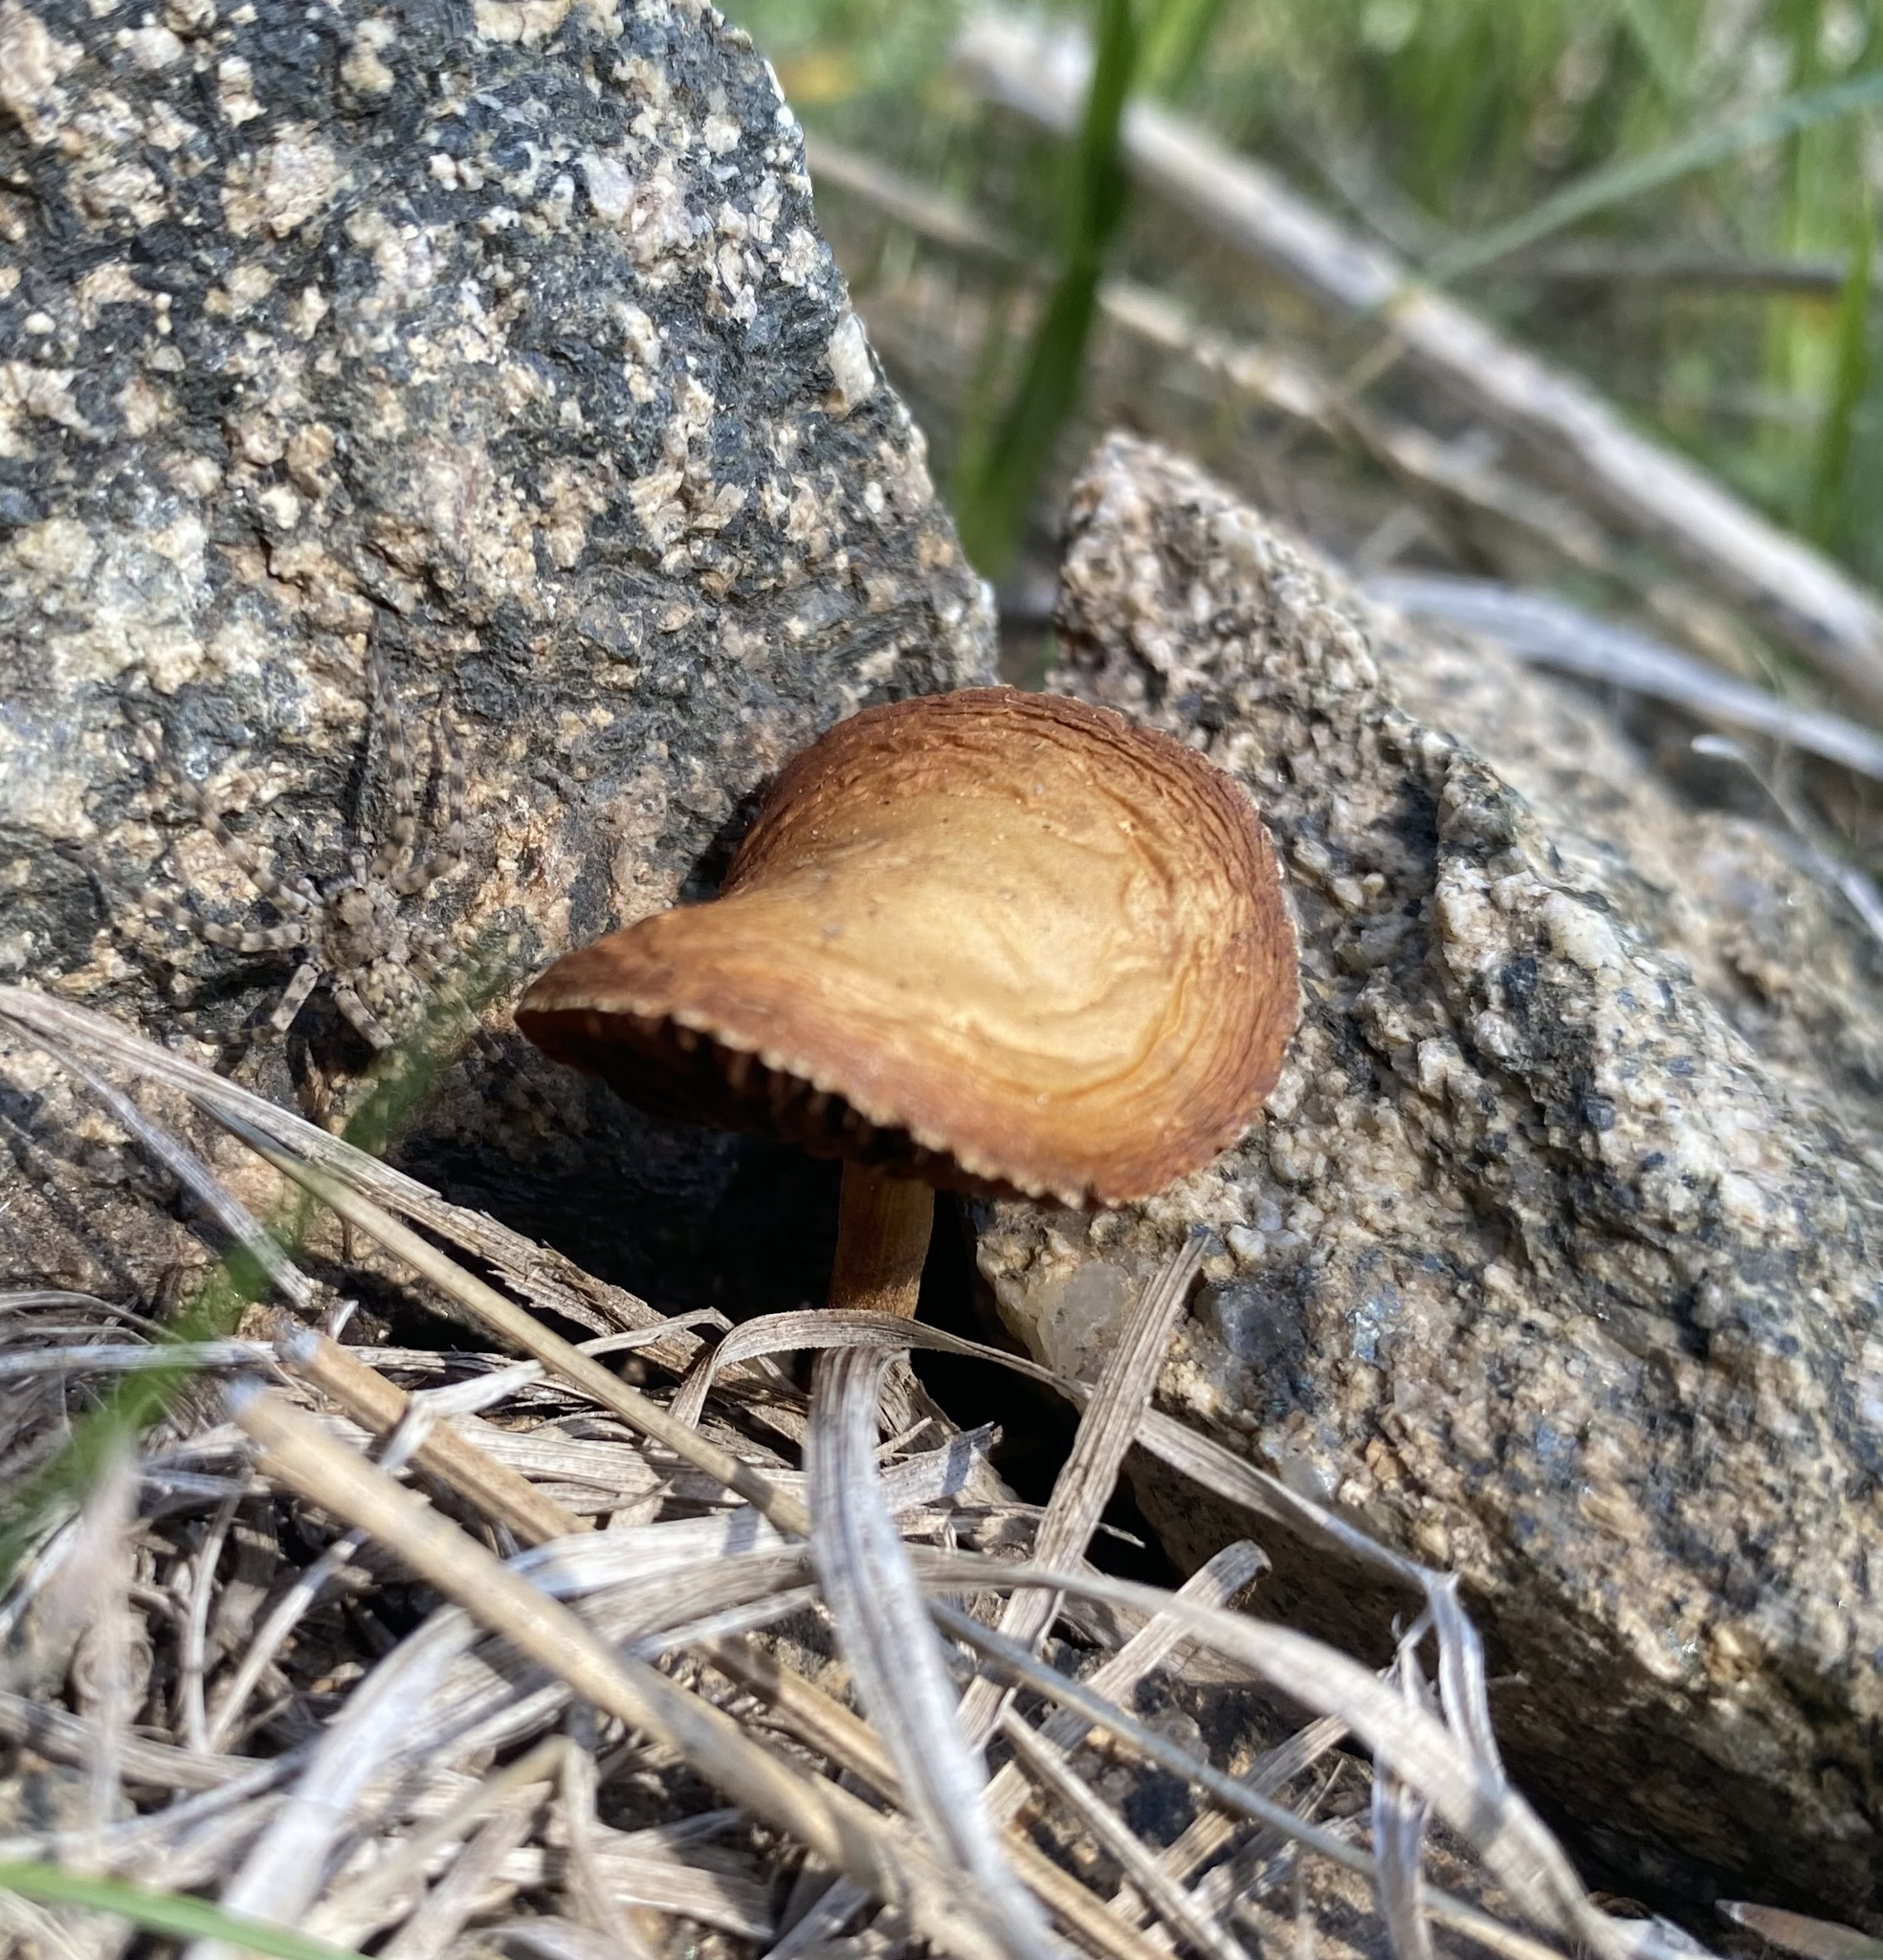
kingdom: Fungi
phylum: Basidiomycota
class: Agaricomycetes
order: Agaricales
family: Strophariaceae
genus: Agrocybe
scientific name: Agrocybe pediades
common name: Common fieldcap
